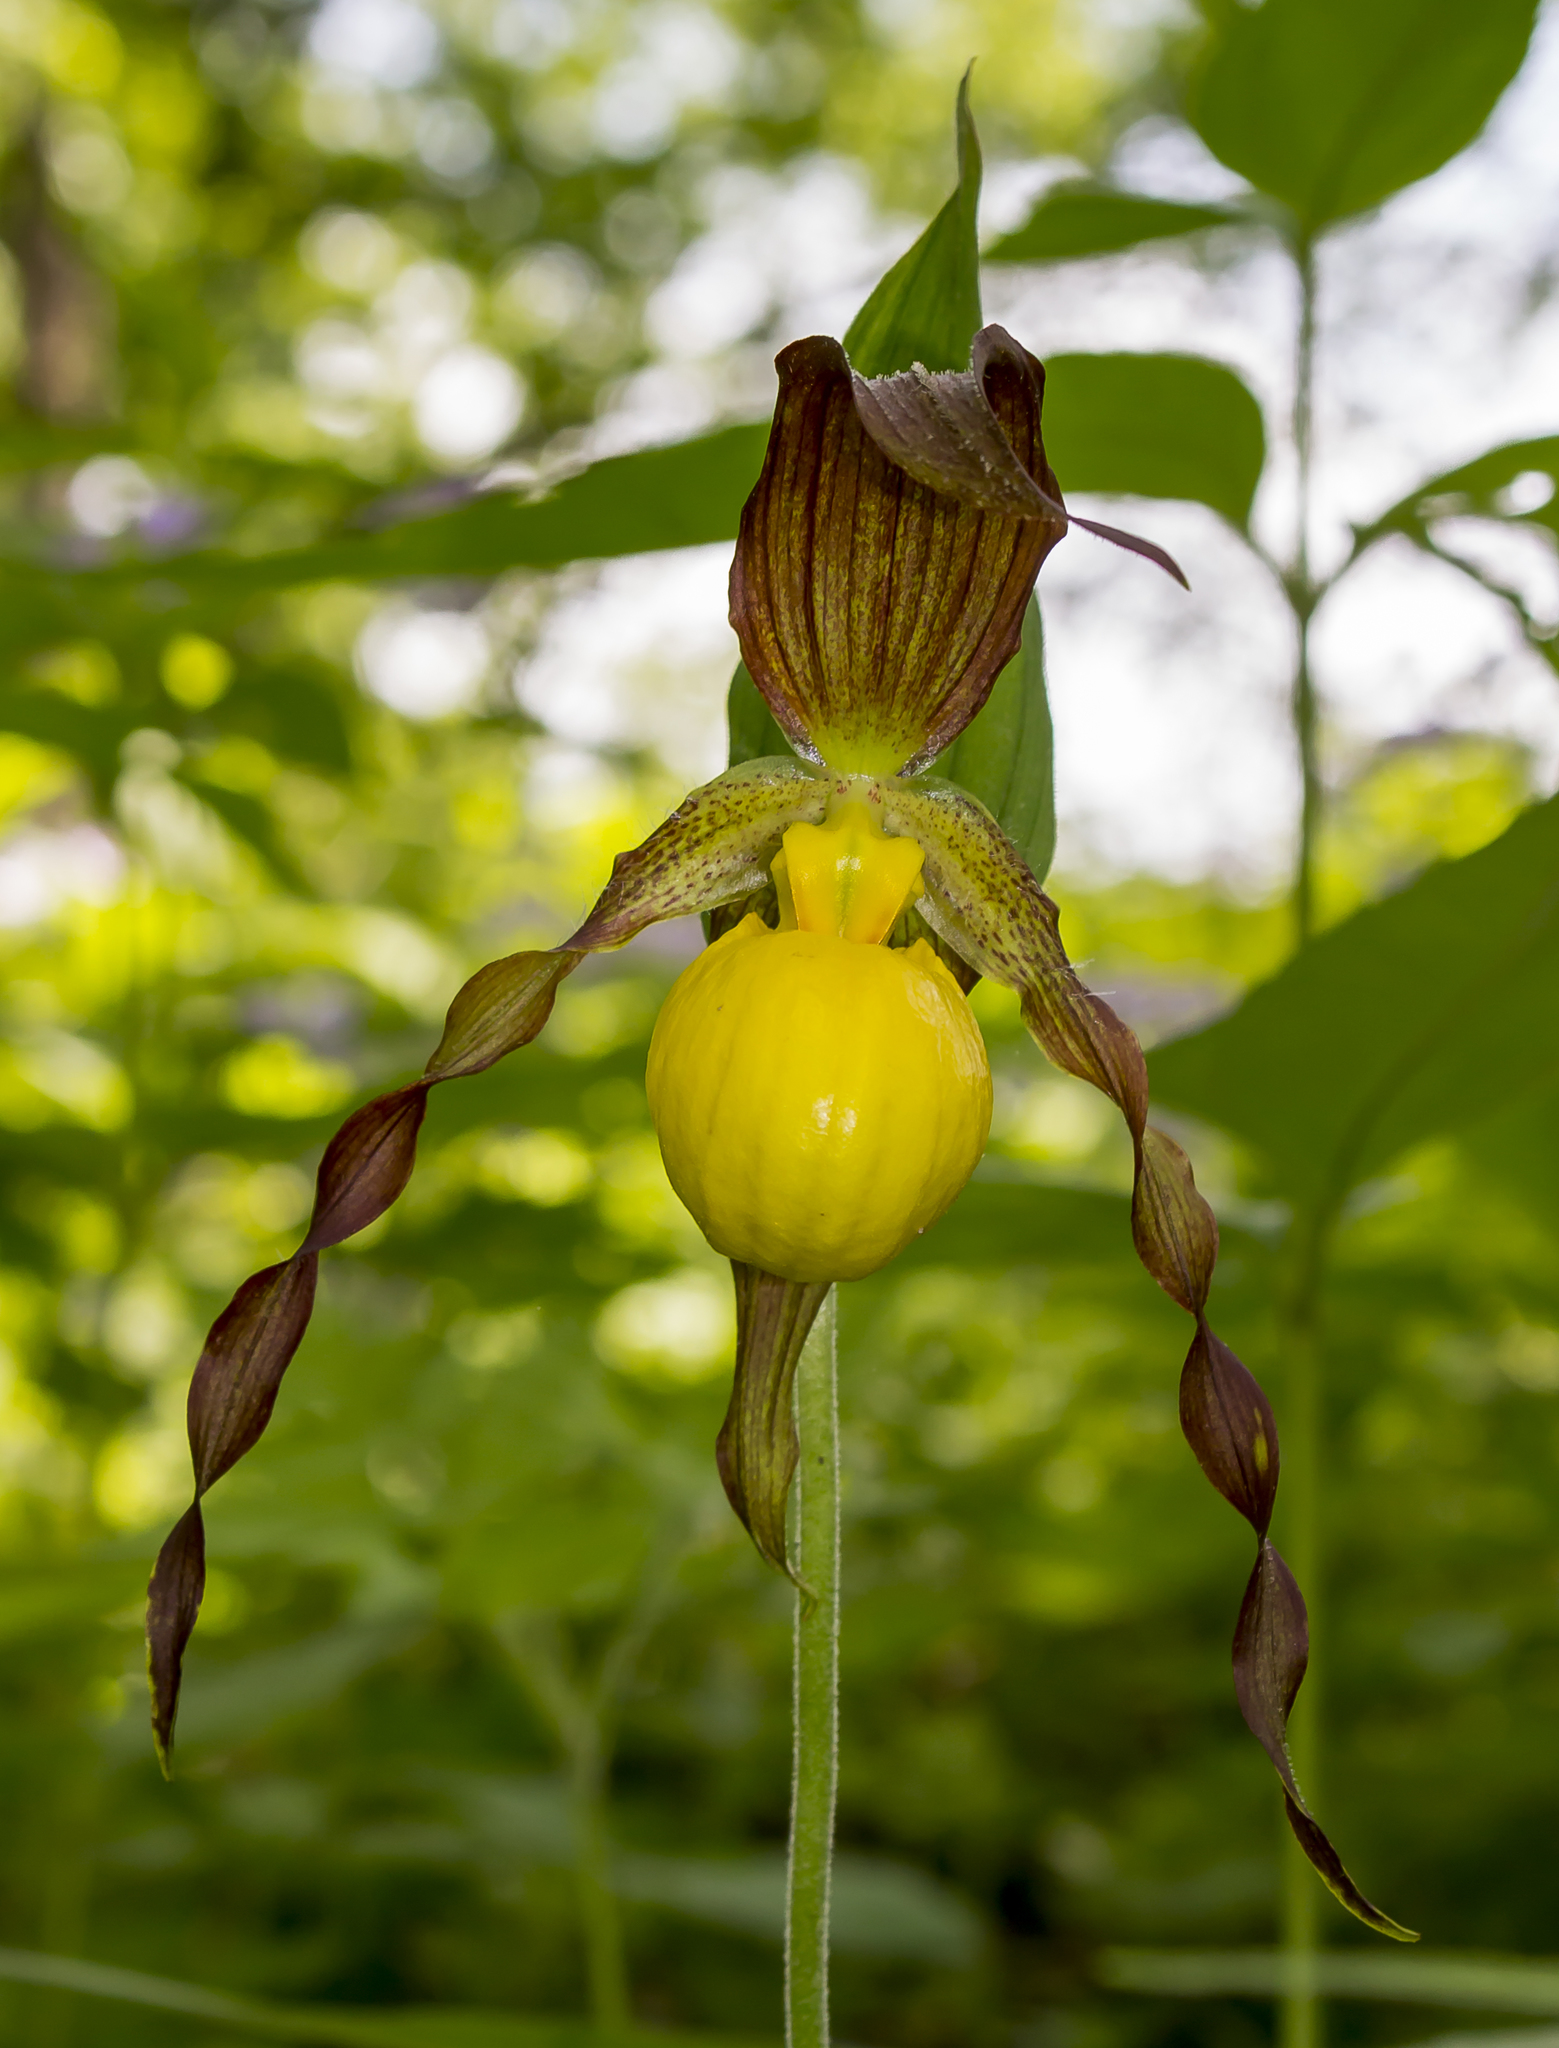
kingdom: Plantae
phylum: Tracheophyta
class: Liliopsida
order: Asparagales
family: Orchidaceae
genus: Cypripedium
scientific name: Cypripedium parviflorum
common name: American yellow lady's-slipper
